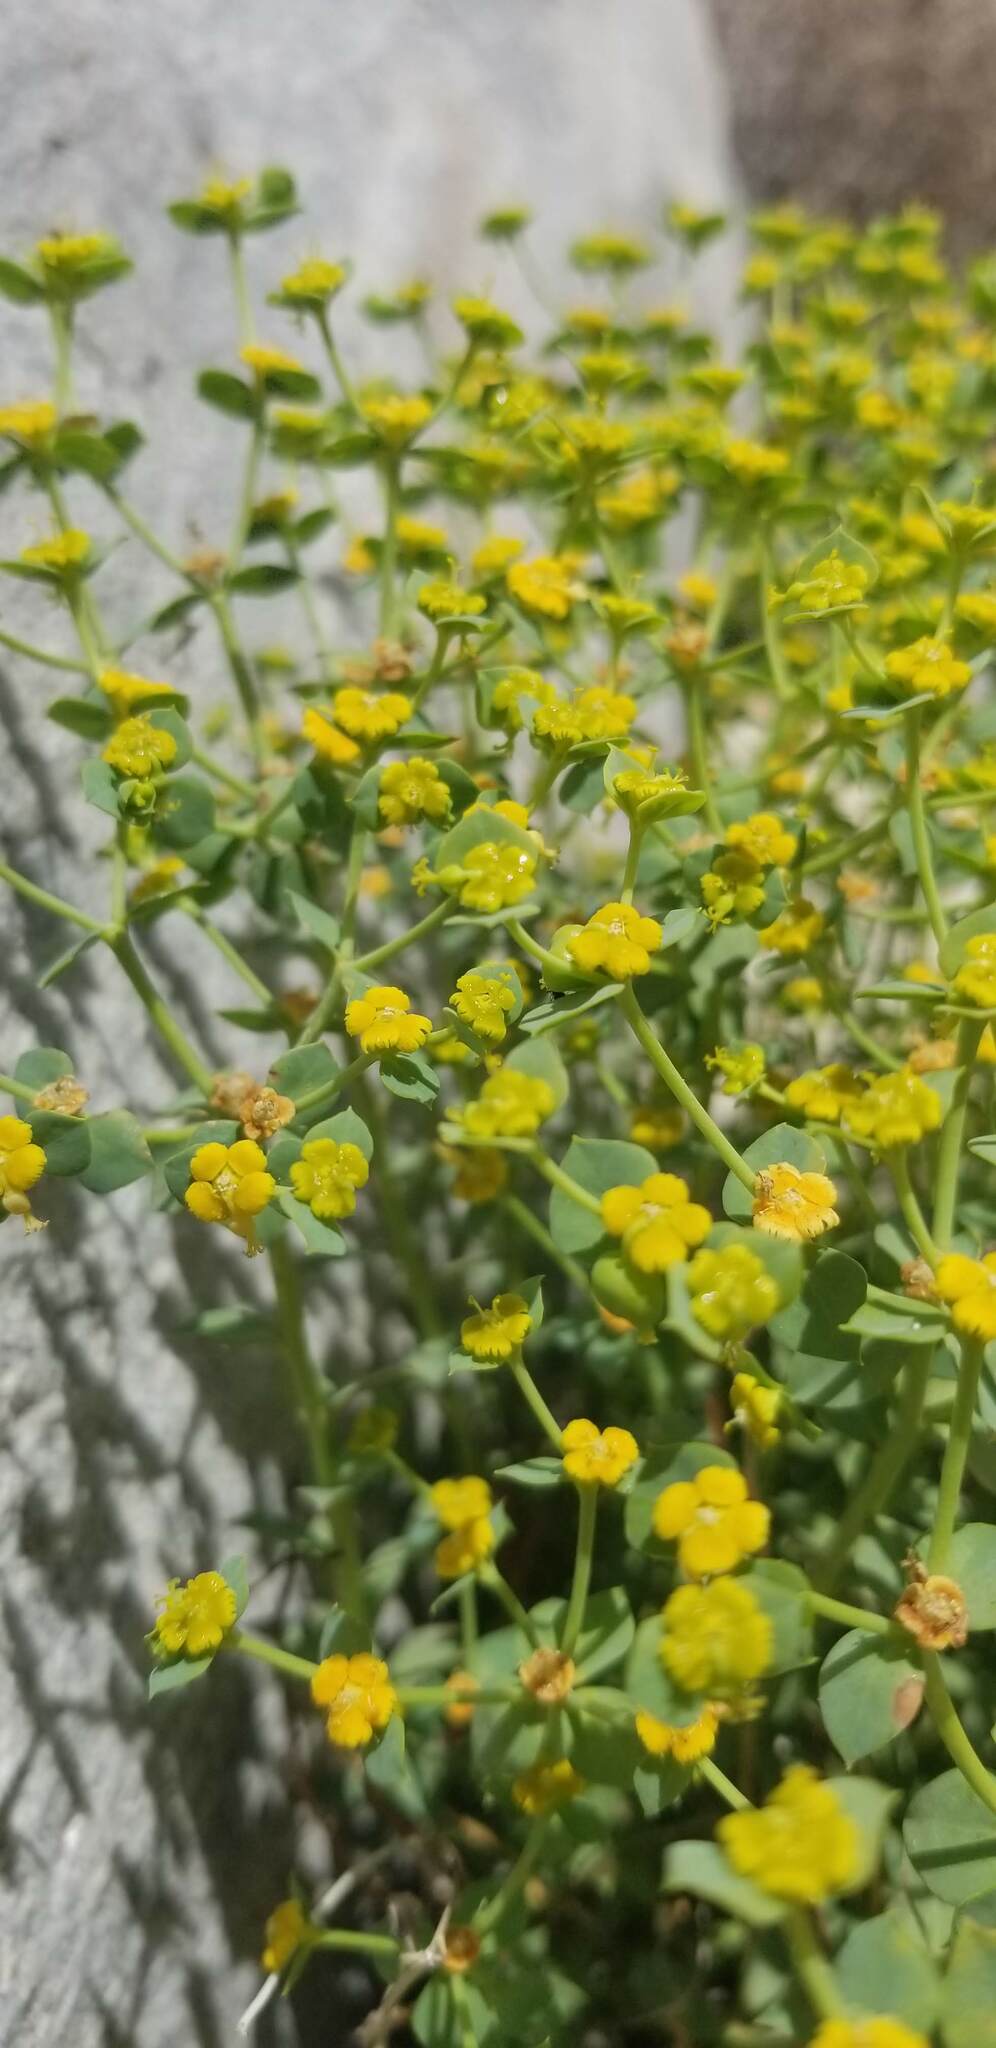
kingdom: Plantae
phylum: Tracheophyta
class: Magnoliopsida
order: Malpighiales
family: Euphorbiaceae
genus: Euphorbia
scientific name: Euphorbia schizoloba
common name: Mojave spurge
